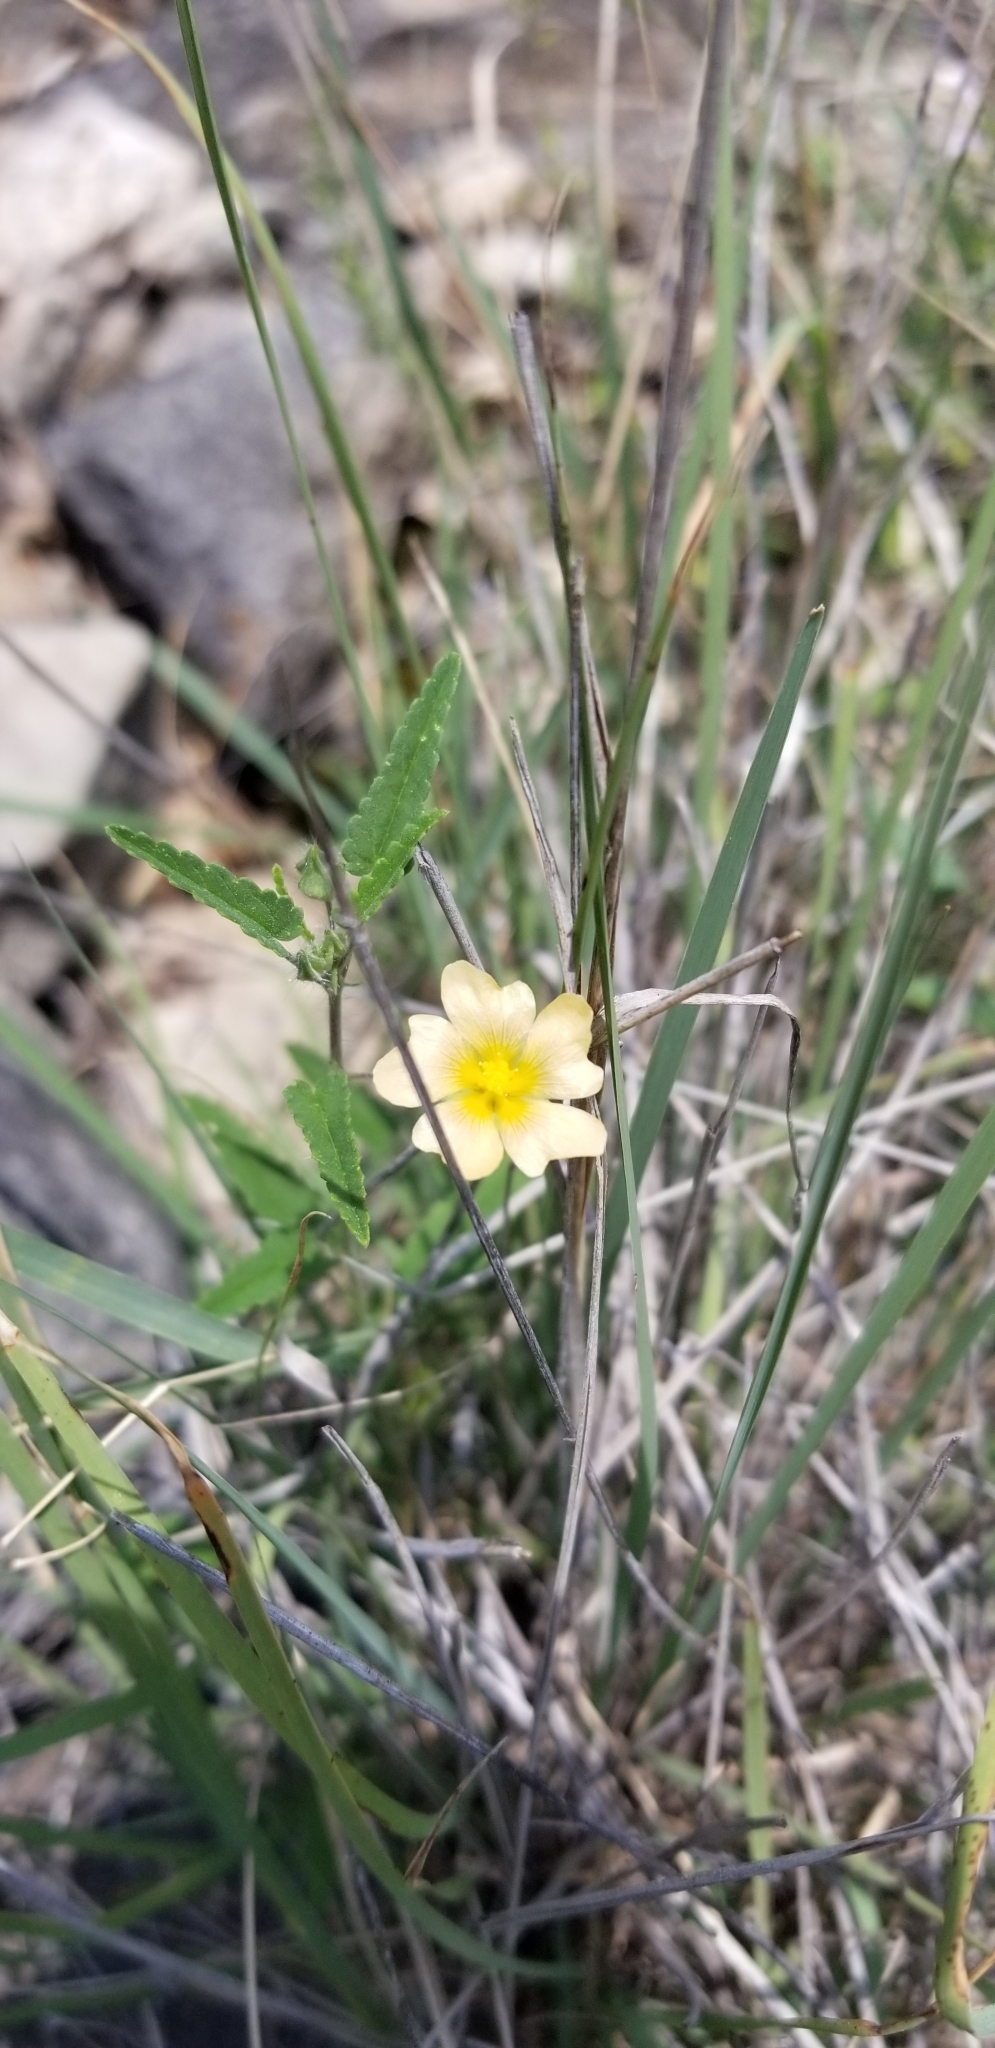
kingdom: Plantae
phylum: Tracheophyta
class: Magnoliopsida
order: Malvales
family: Malvaceae
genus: Sida
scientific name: Sida abutilifolia
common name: Spreading fanpetals
